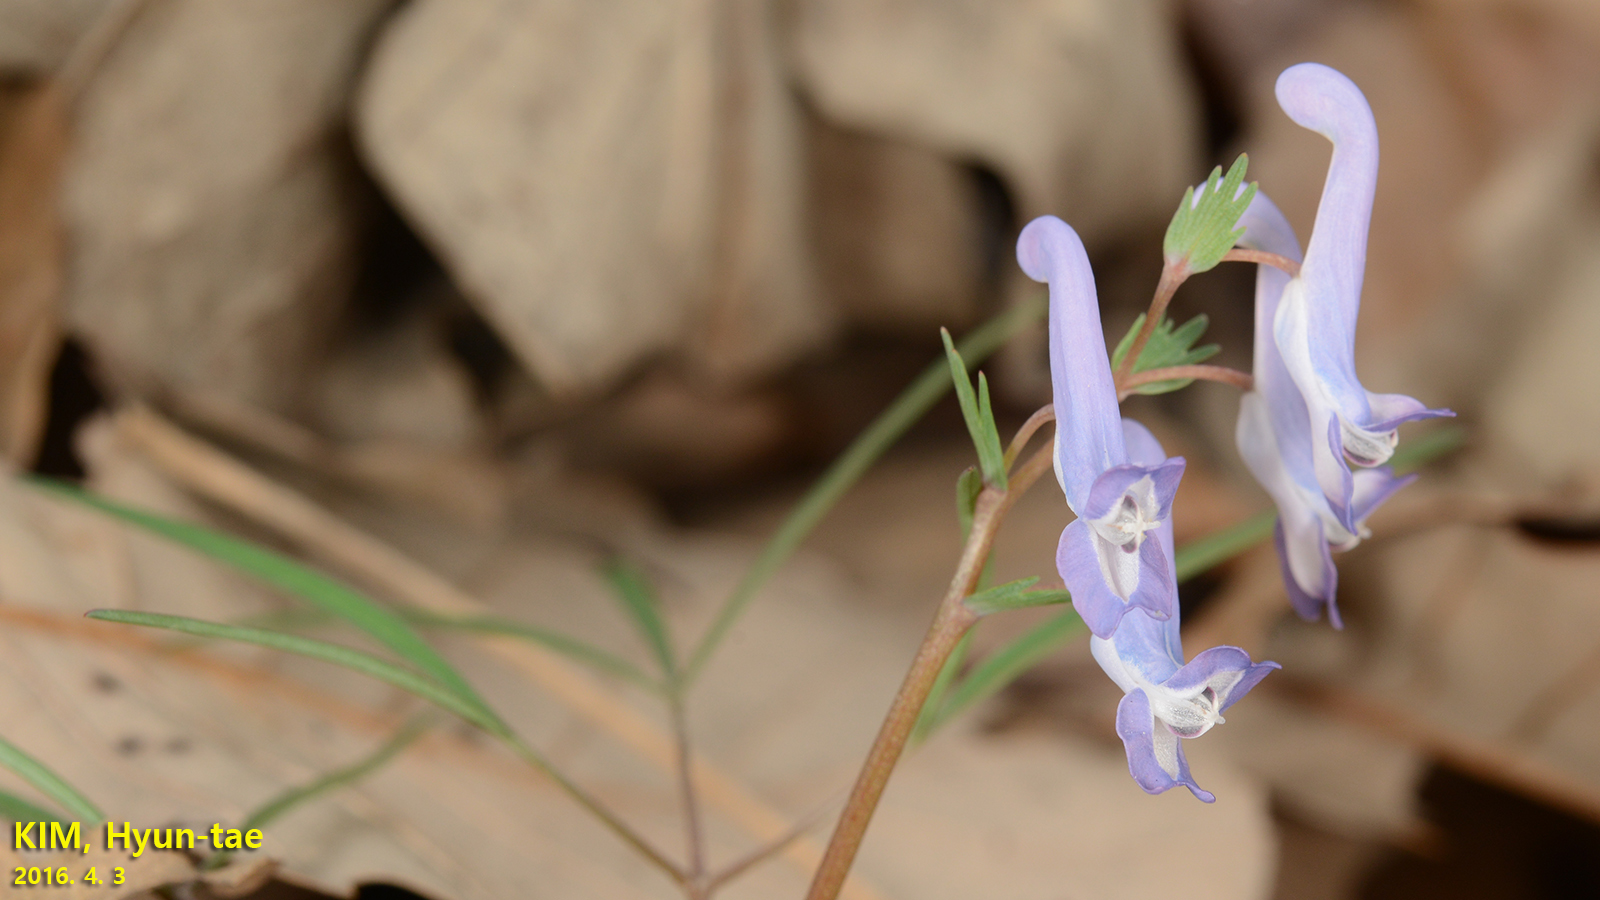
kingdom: Plantae
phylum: Tracheophyta
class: Magnoliopsida
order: Ranunculales
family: Papaveraceae
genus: Corydalis
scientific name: Corydalis turtschaninovii
